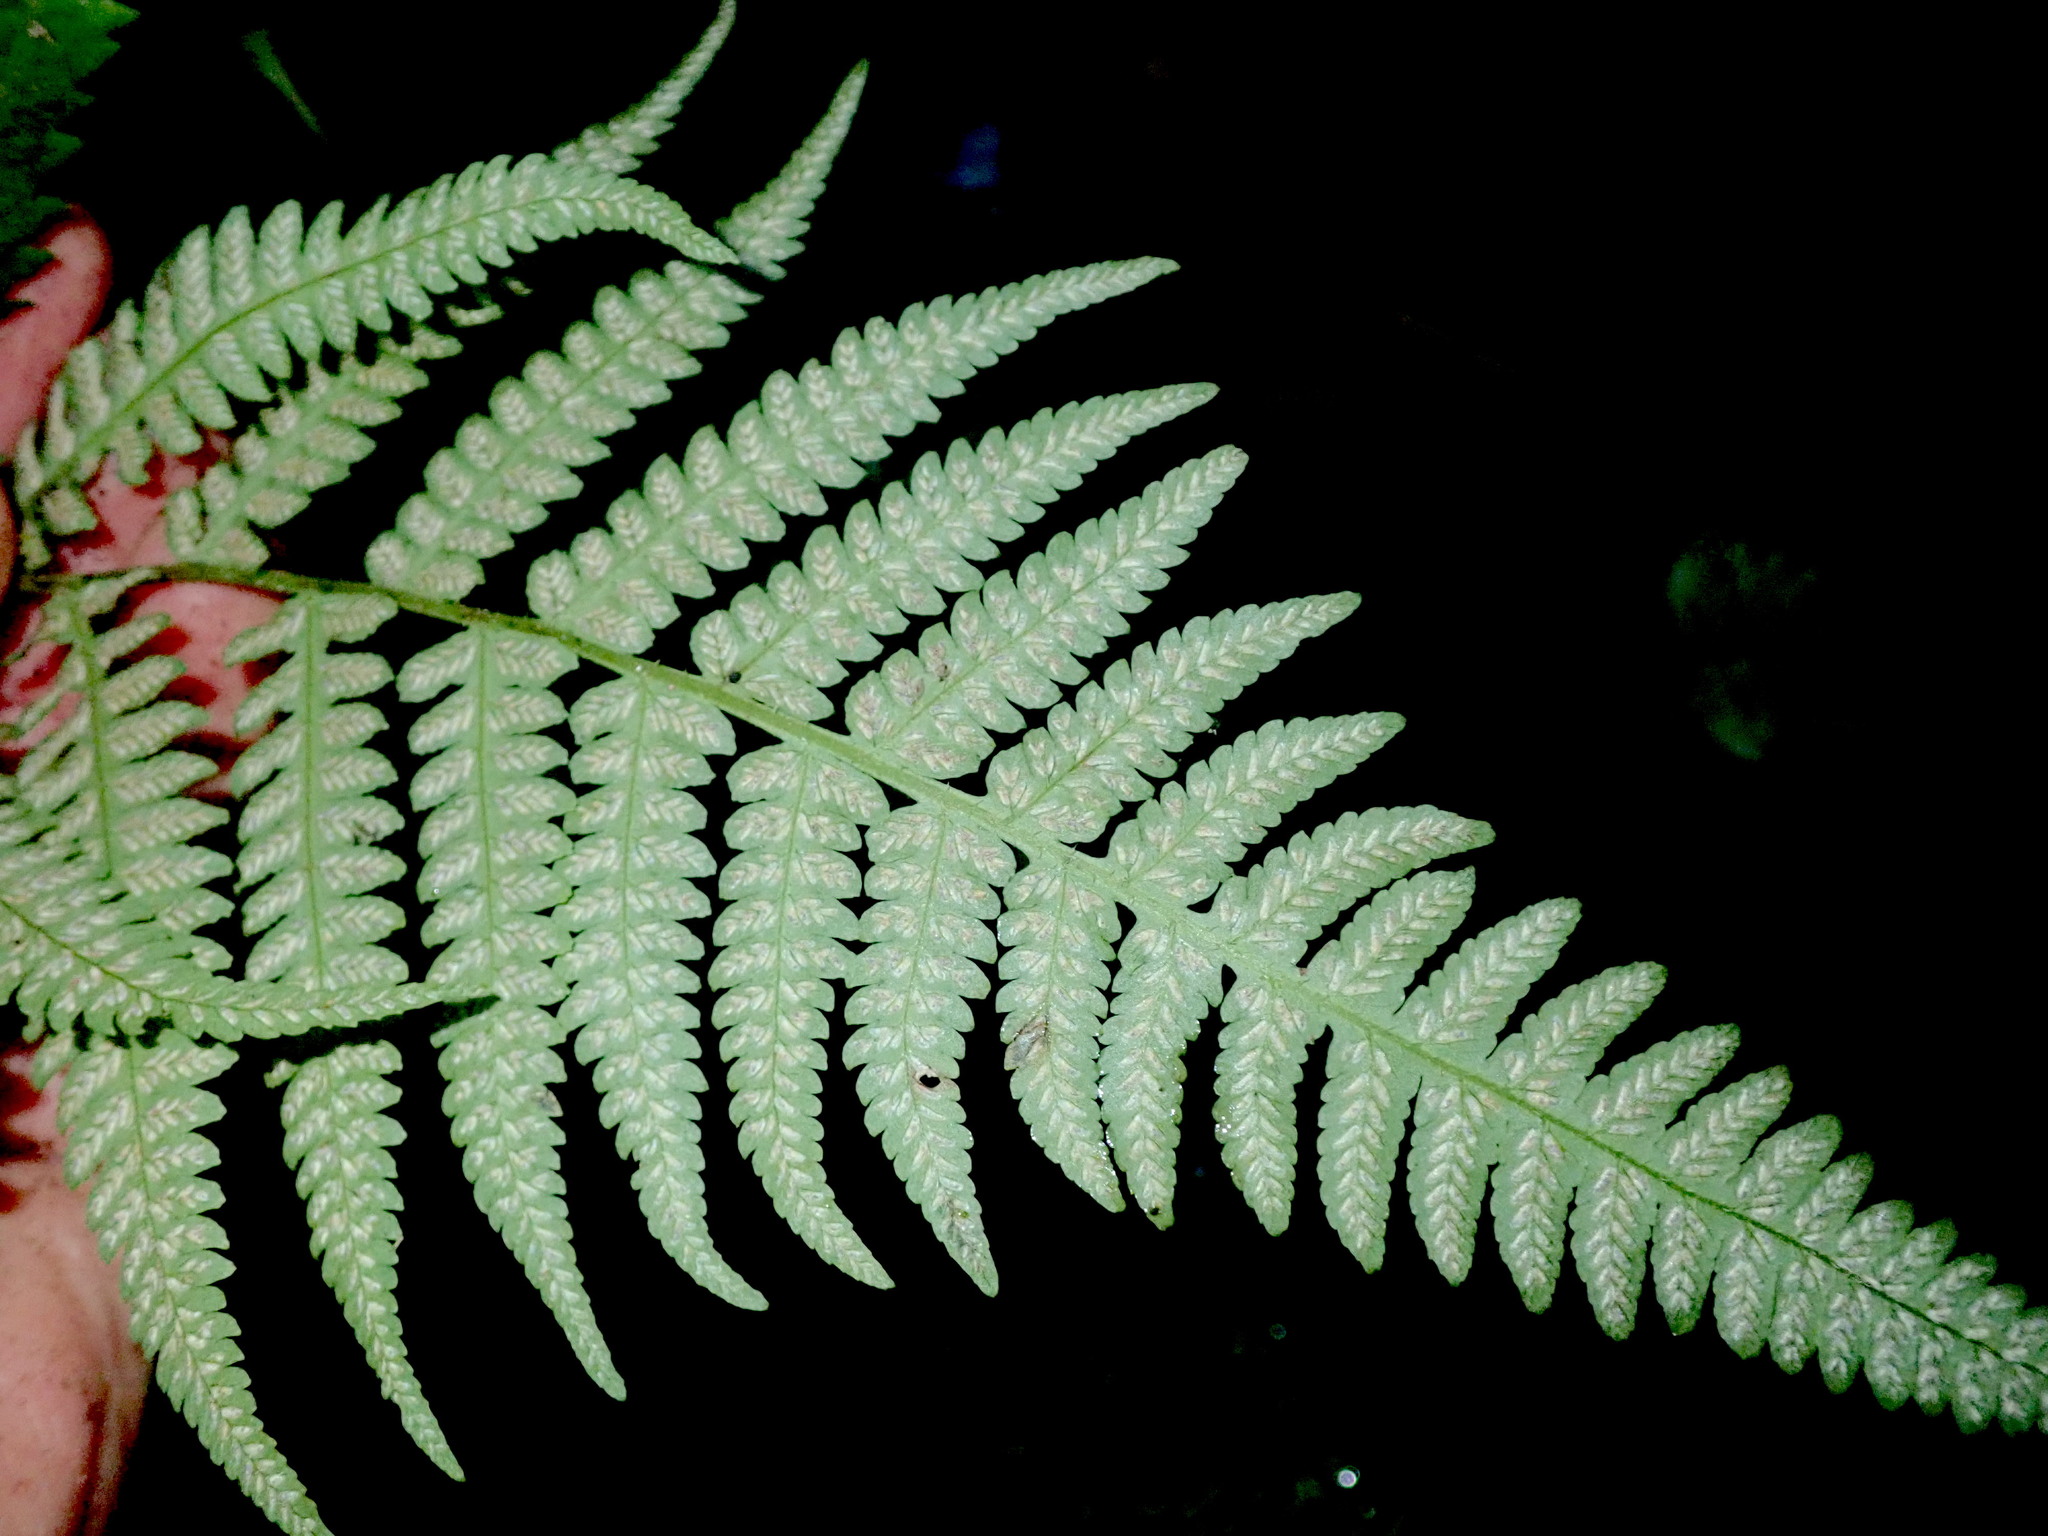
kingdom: Plantae
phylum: Tracheophyta
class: Polypodiopsida
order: Polypodiales
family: Athyriaceae
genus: Deparia
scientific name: Deparia petersenii
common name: Japanese false spleenwort
